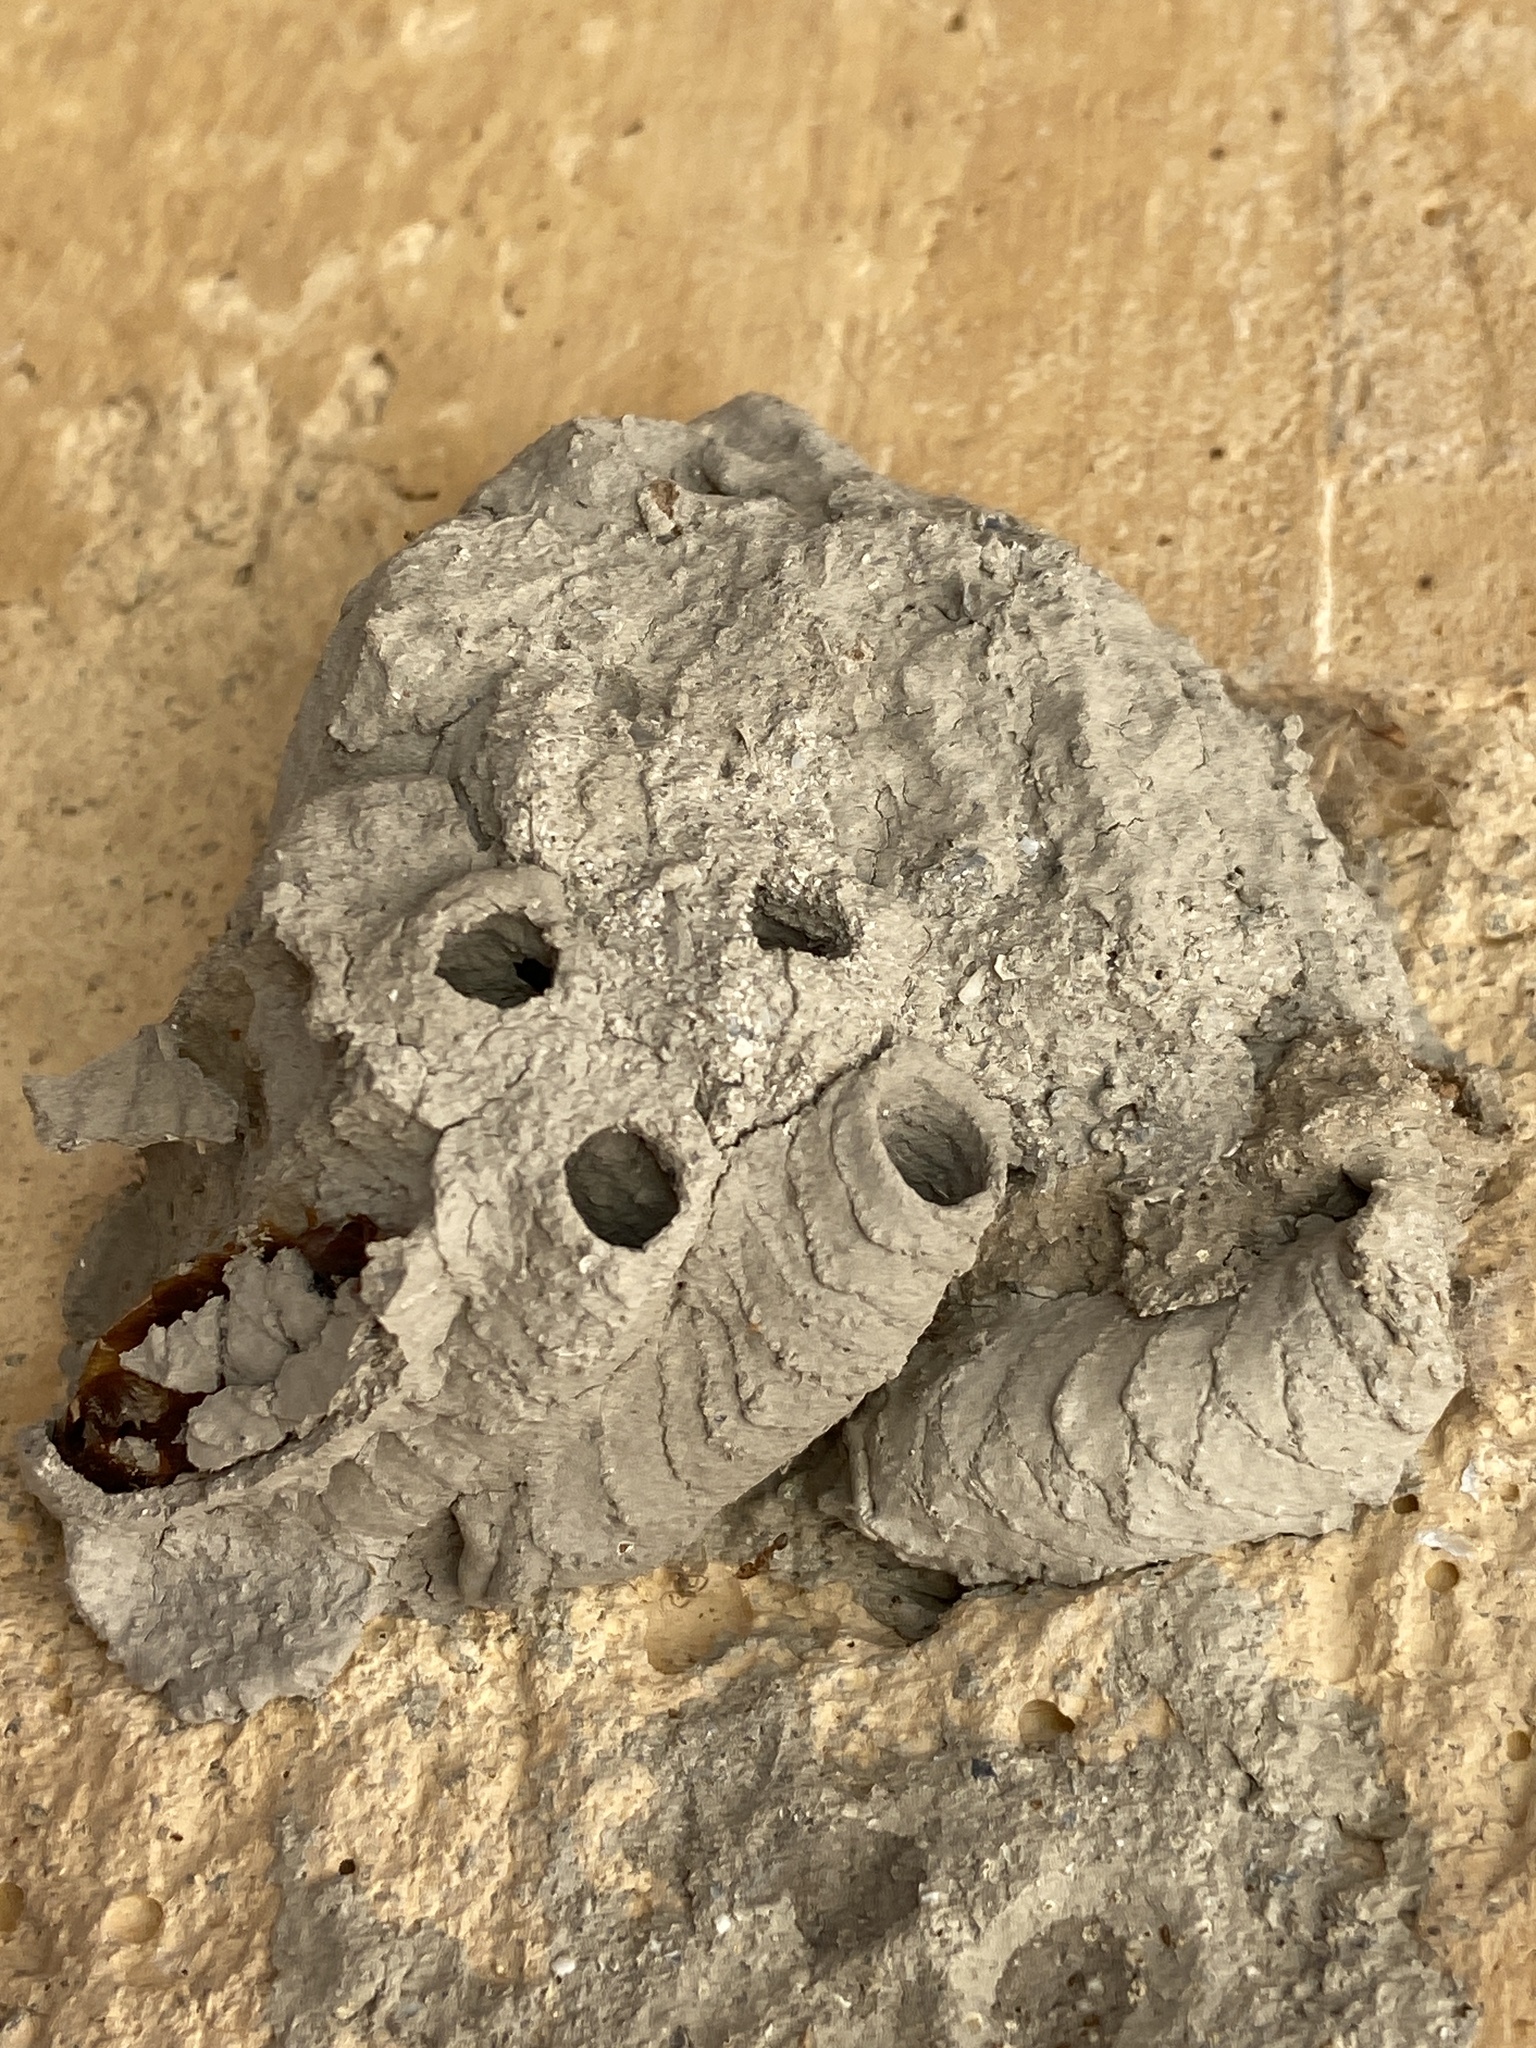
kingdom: Animalia
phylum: Arthropoda
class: Insecta
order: Hymenoptera
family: Sphecidae
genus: Sceliphron
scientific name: Sceliphron
